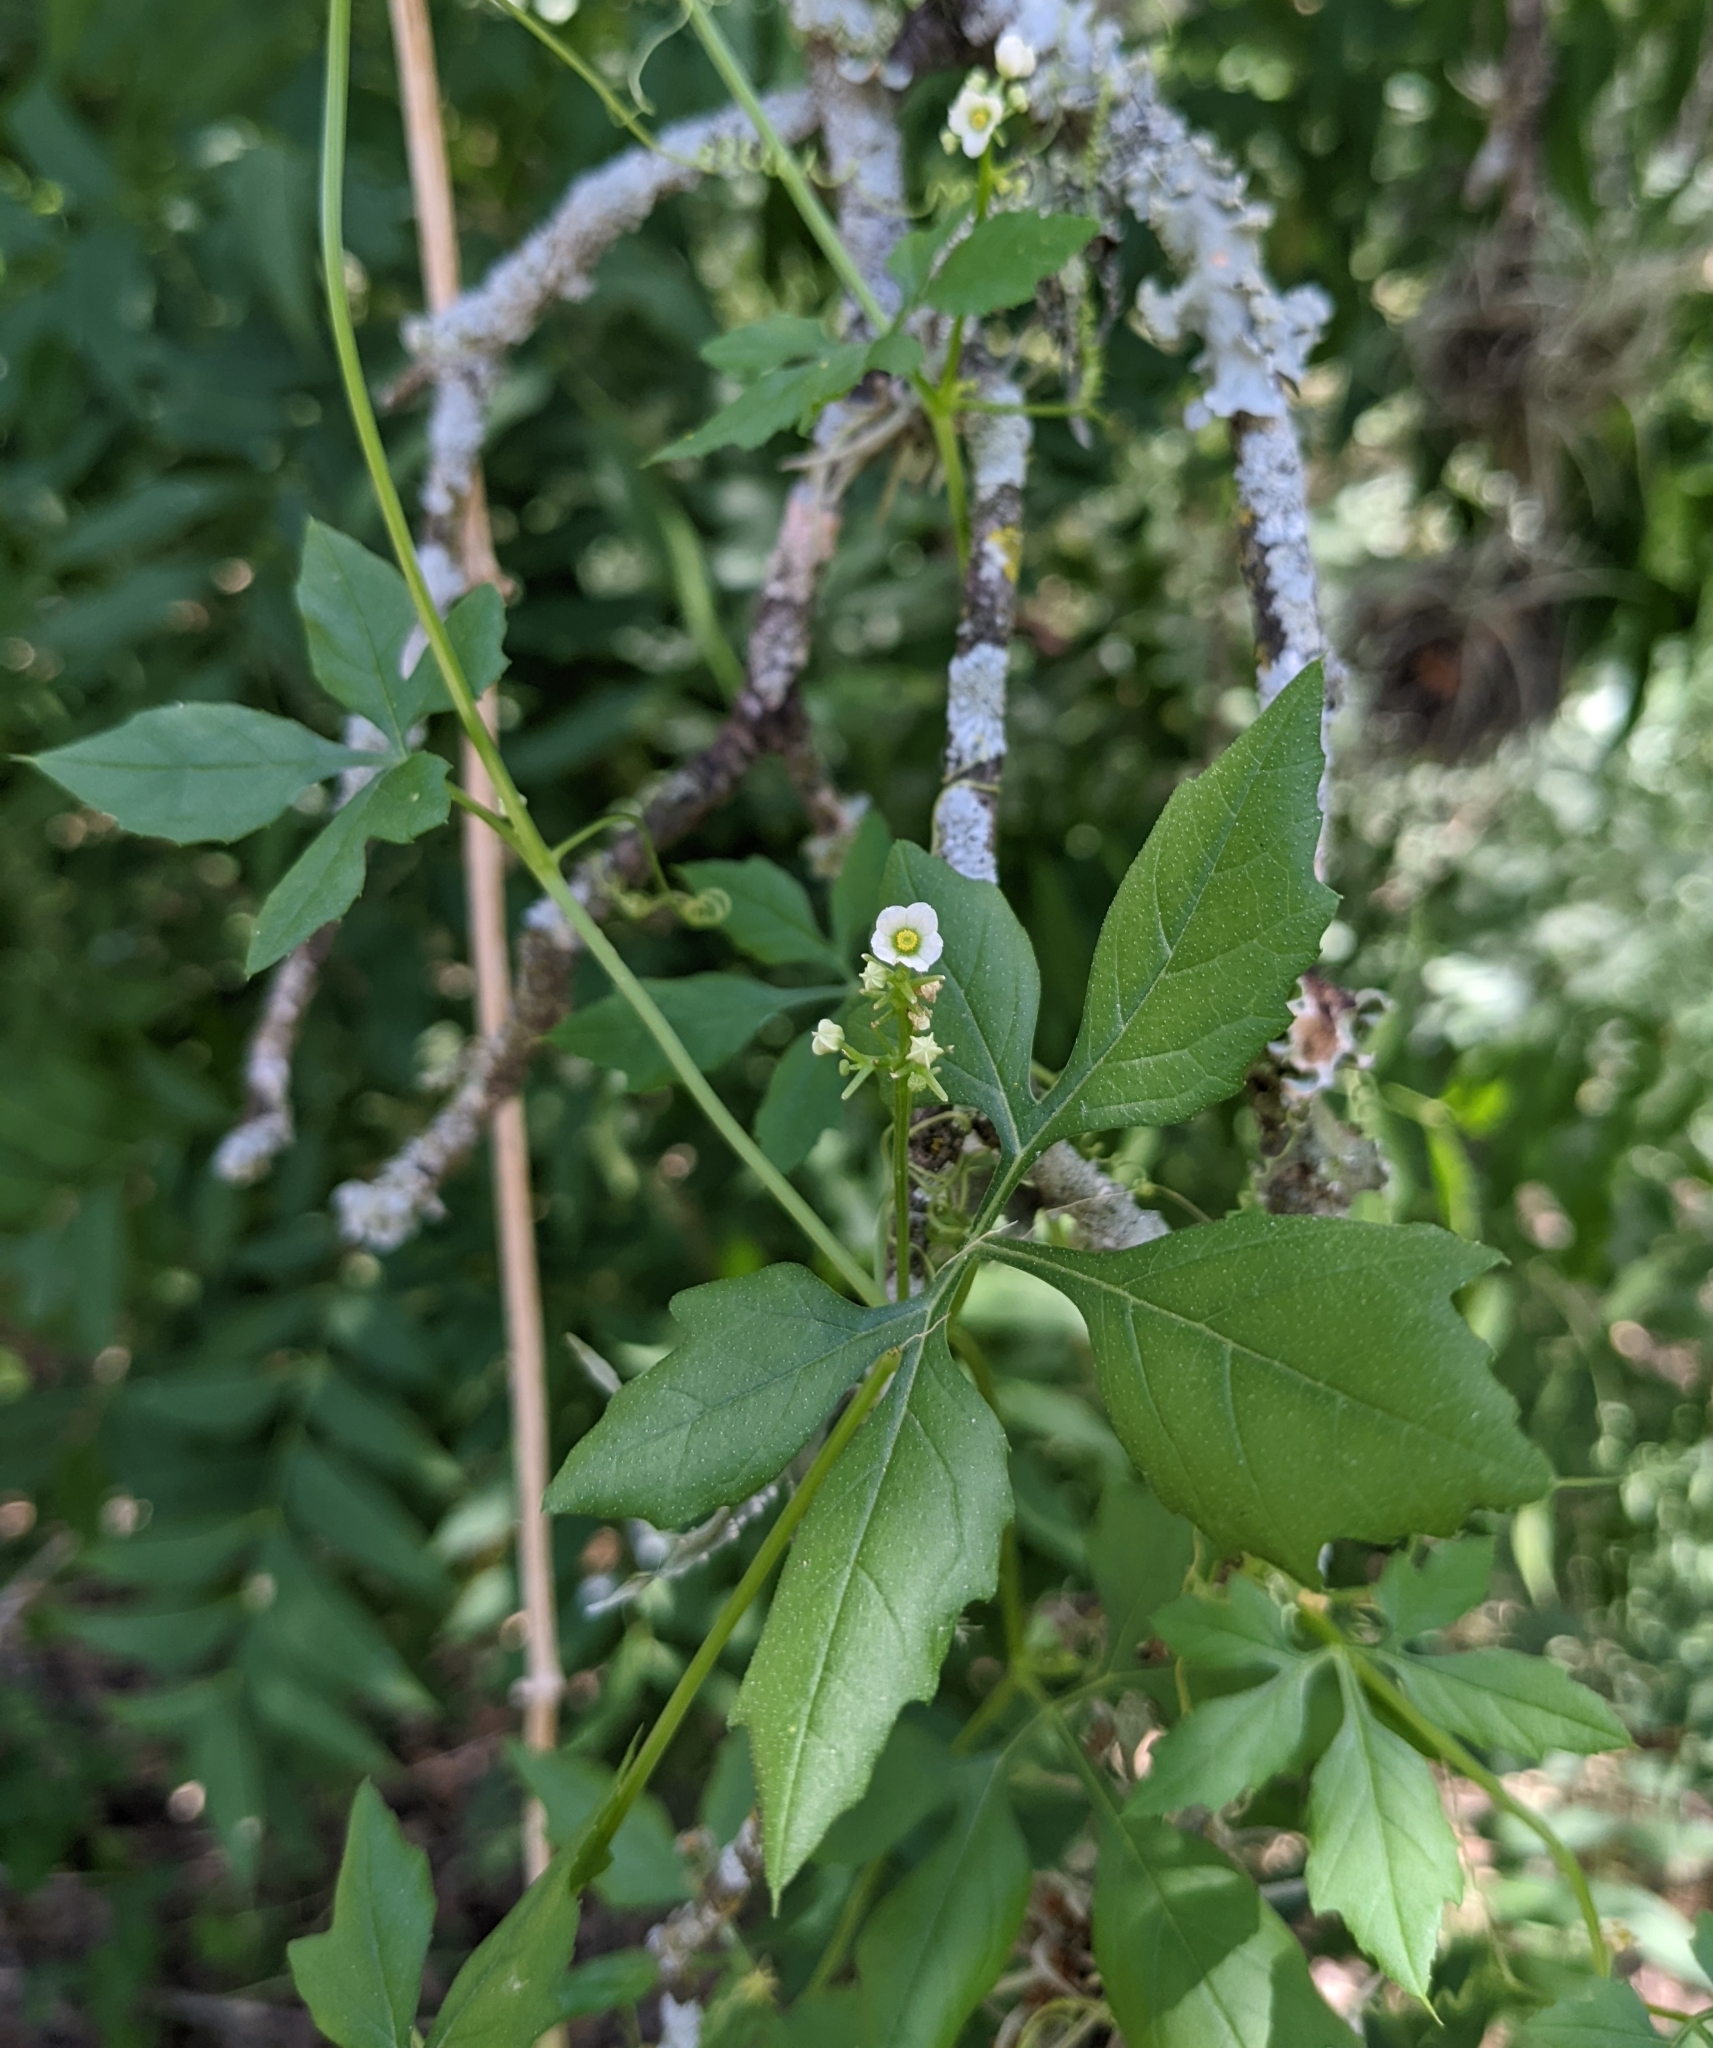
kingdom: Plantae
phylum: Tracheophyta
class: Magnoliopsida
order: Cucurbitales
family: Cucurbitaceae
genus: Cyclanthera
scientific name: Cyclanthera naudiniana
